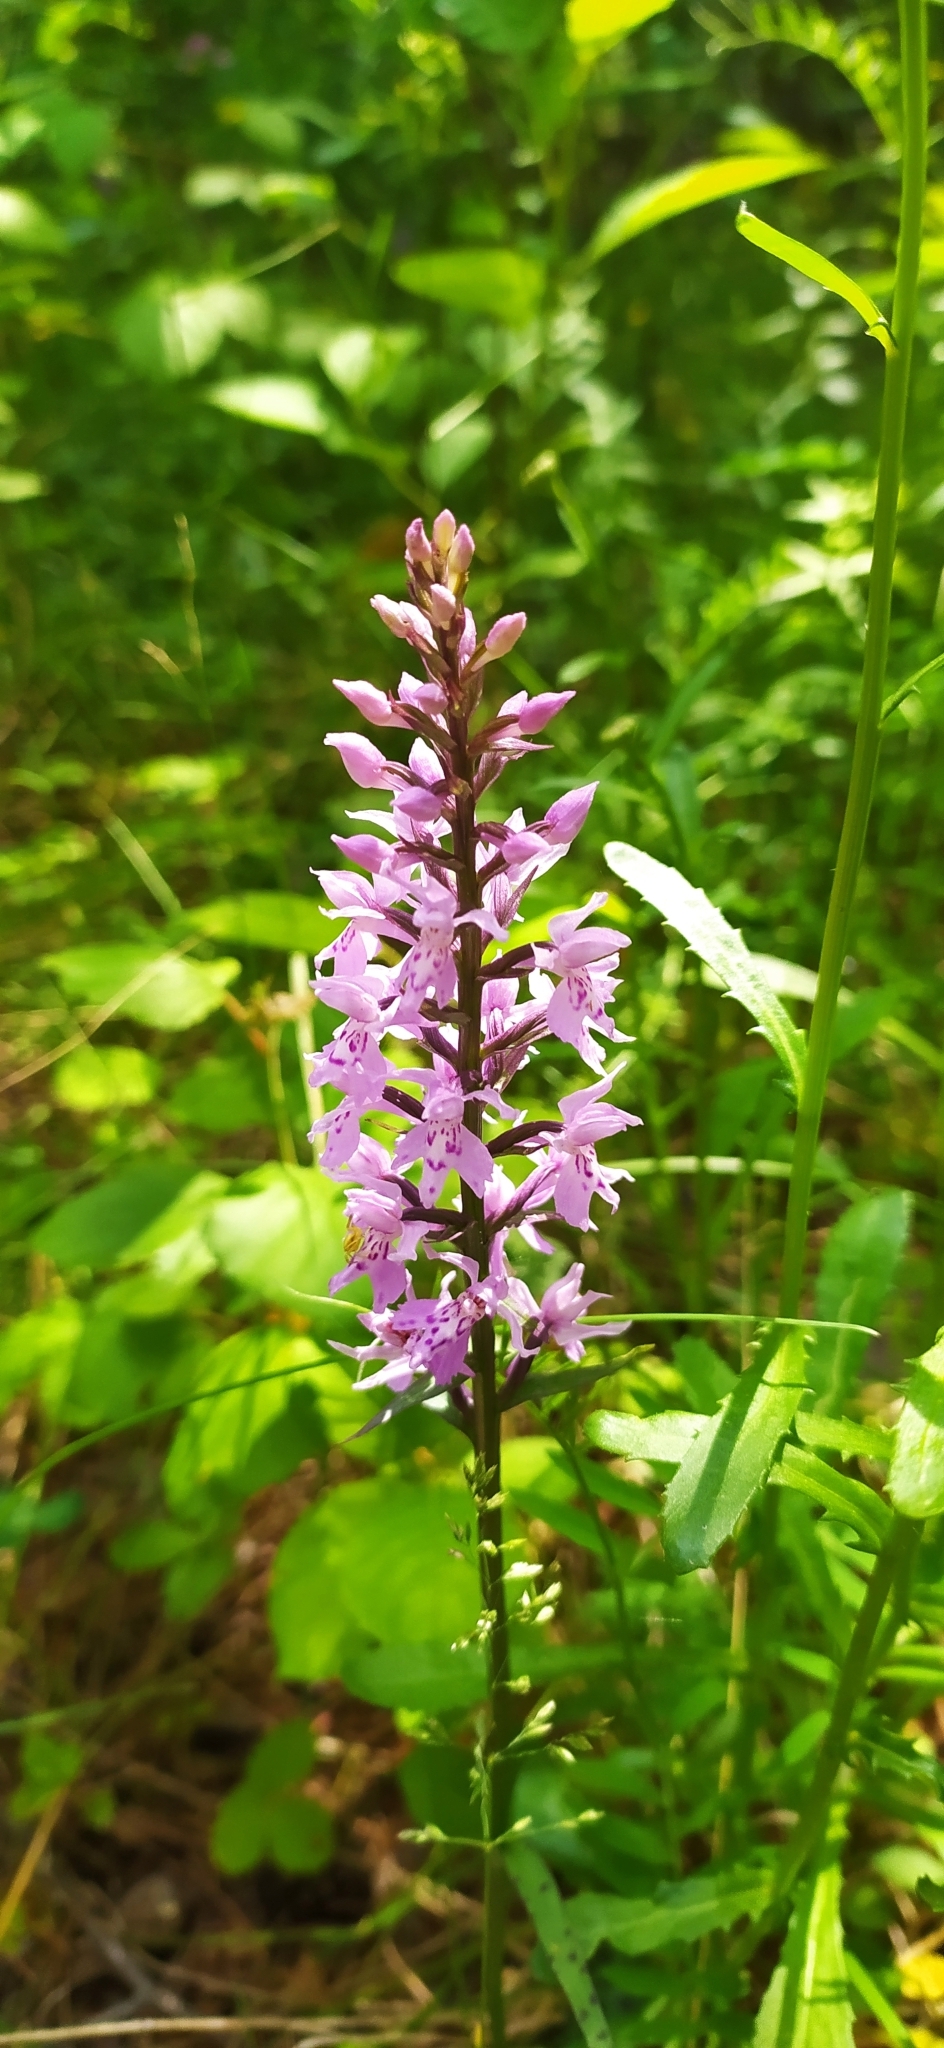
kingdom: Plantae
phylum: Tracheophyta
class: Liliopsida
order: Asparagales
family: Orchidaceae
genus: Dactylorhiza
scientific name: Dactylorhiza maculata
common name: Heath spotted-orchid
